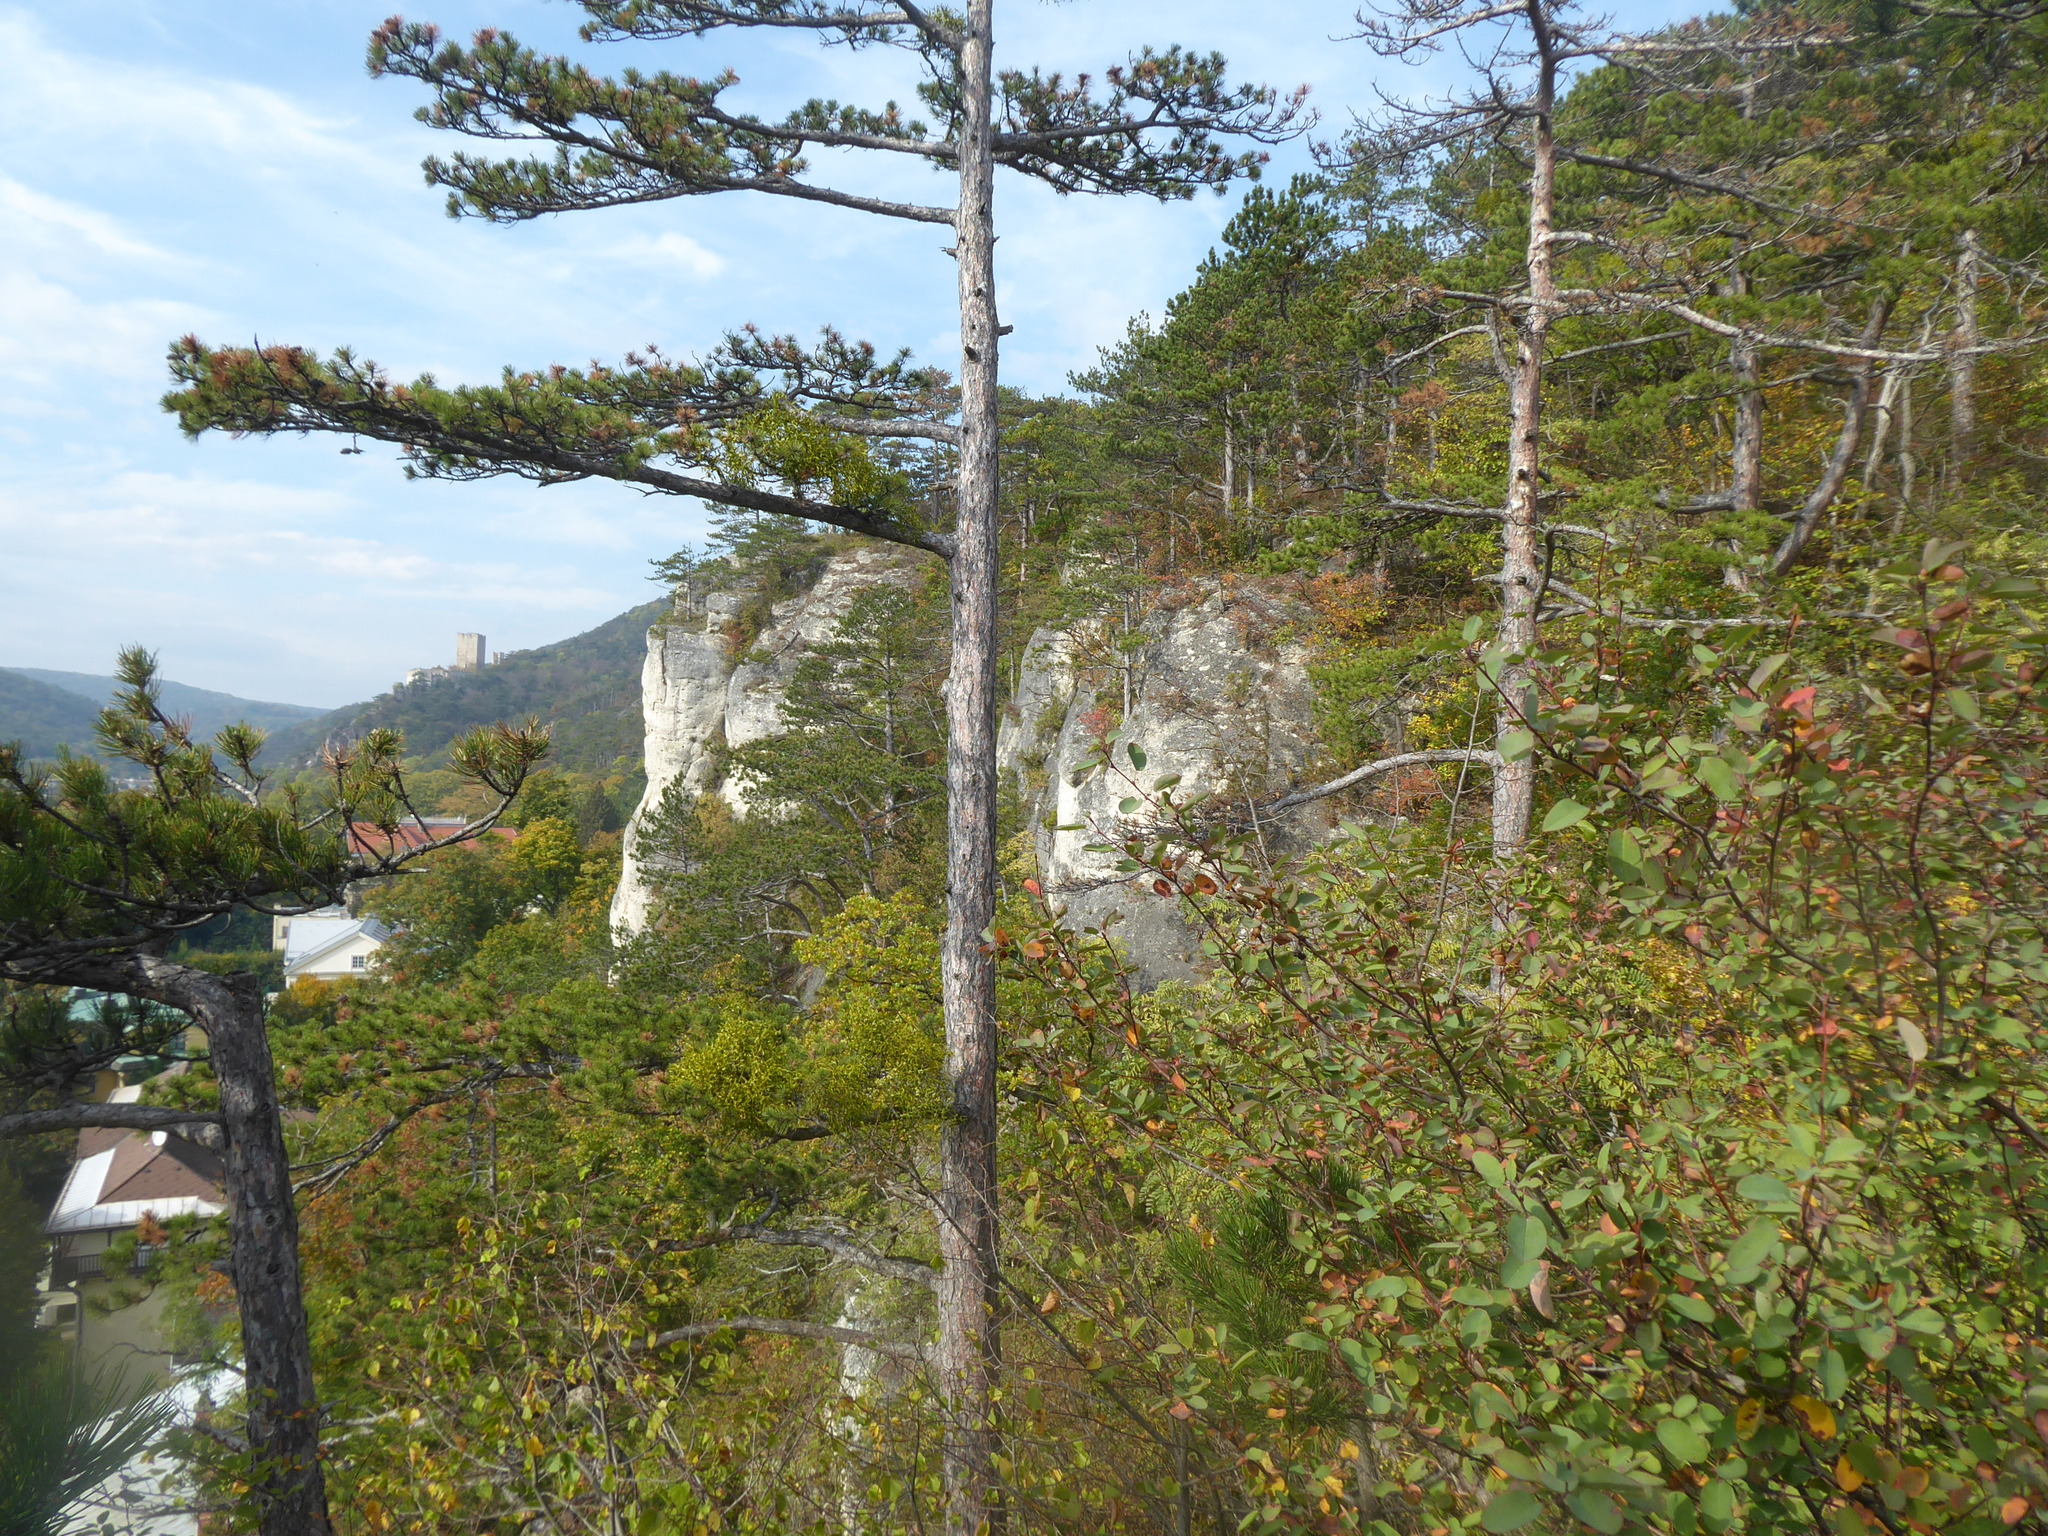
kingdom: Plantae
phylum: Tracheophyta
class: Magnoliopsida
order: Santalales
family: Viscaceae
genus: Viscum
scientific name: Viscum laxum
